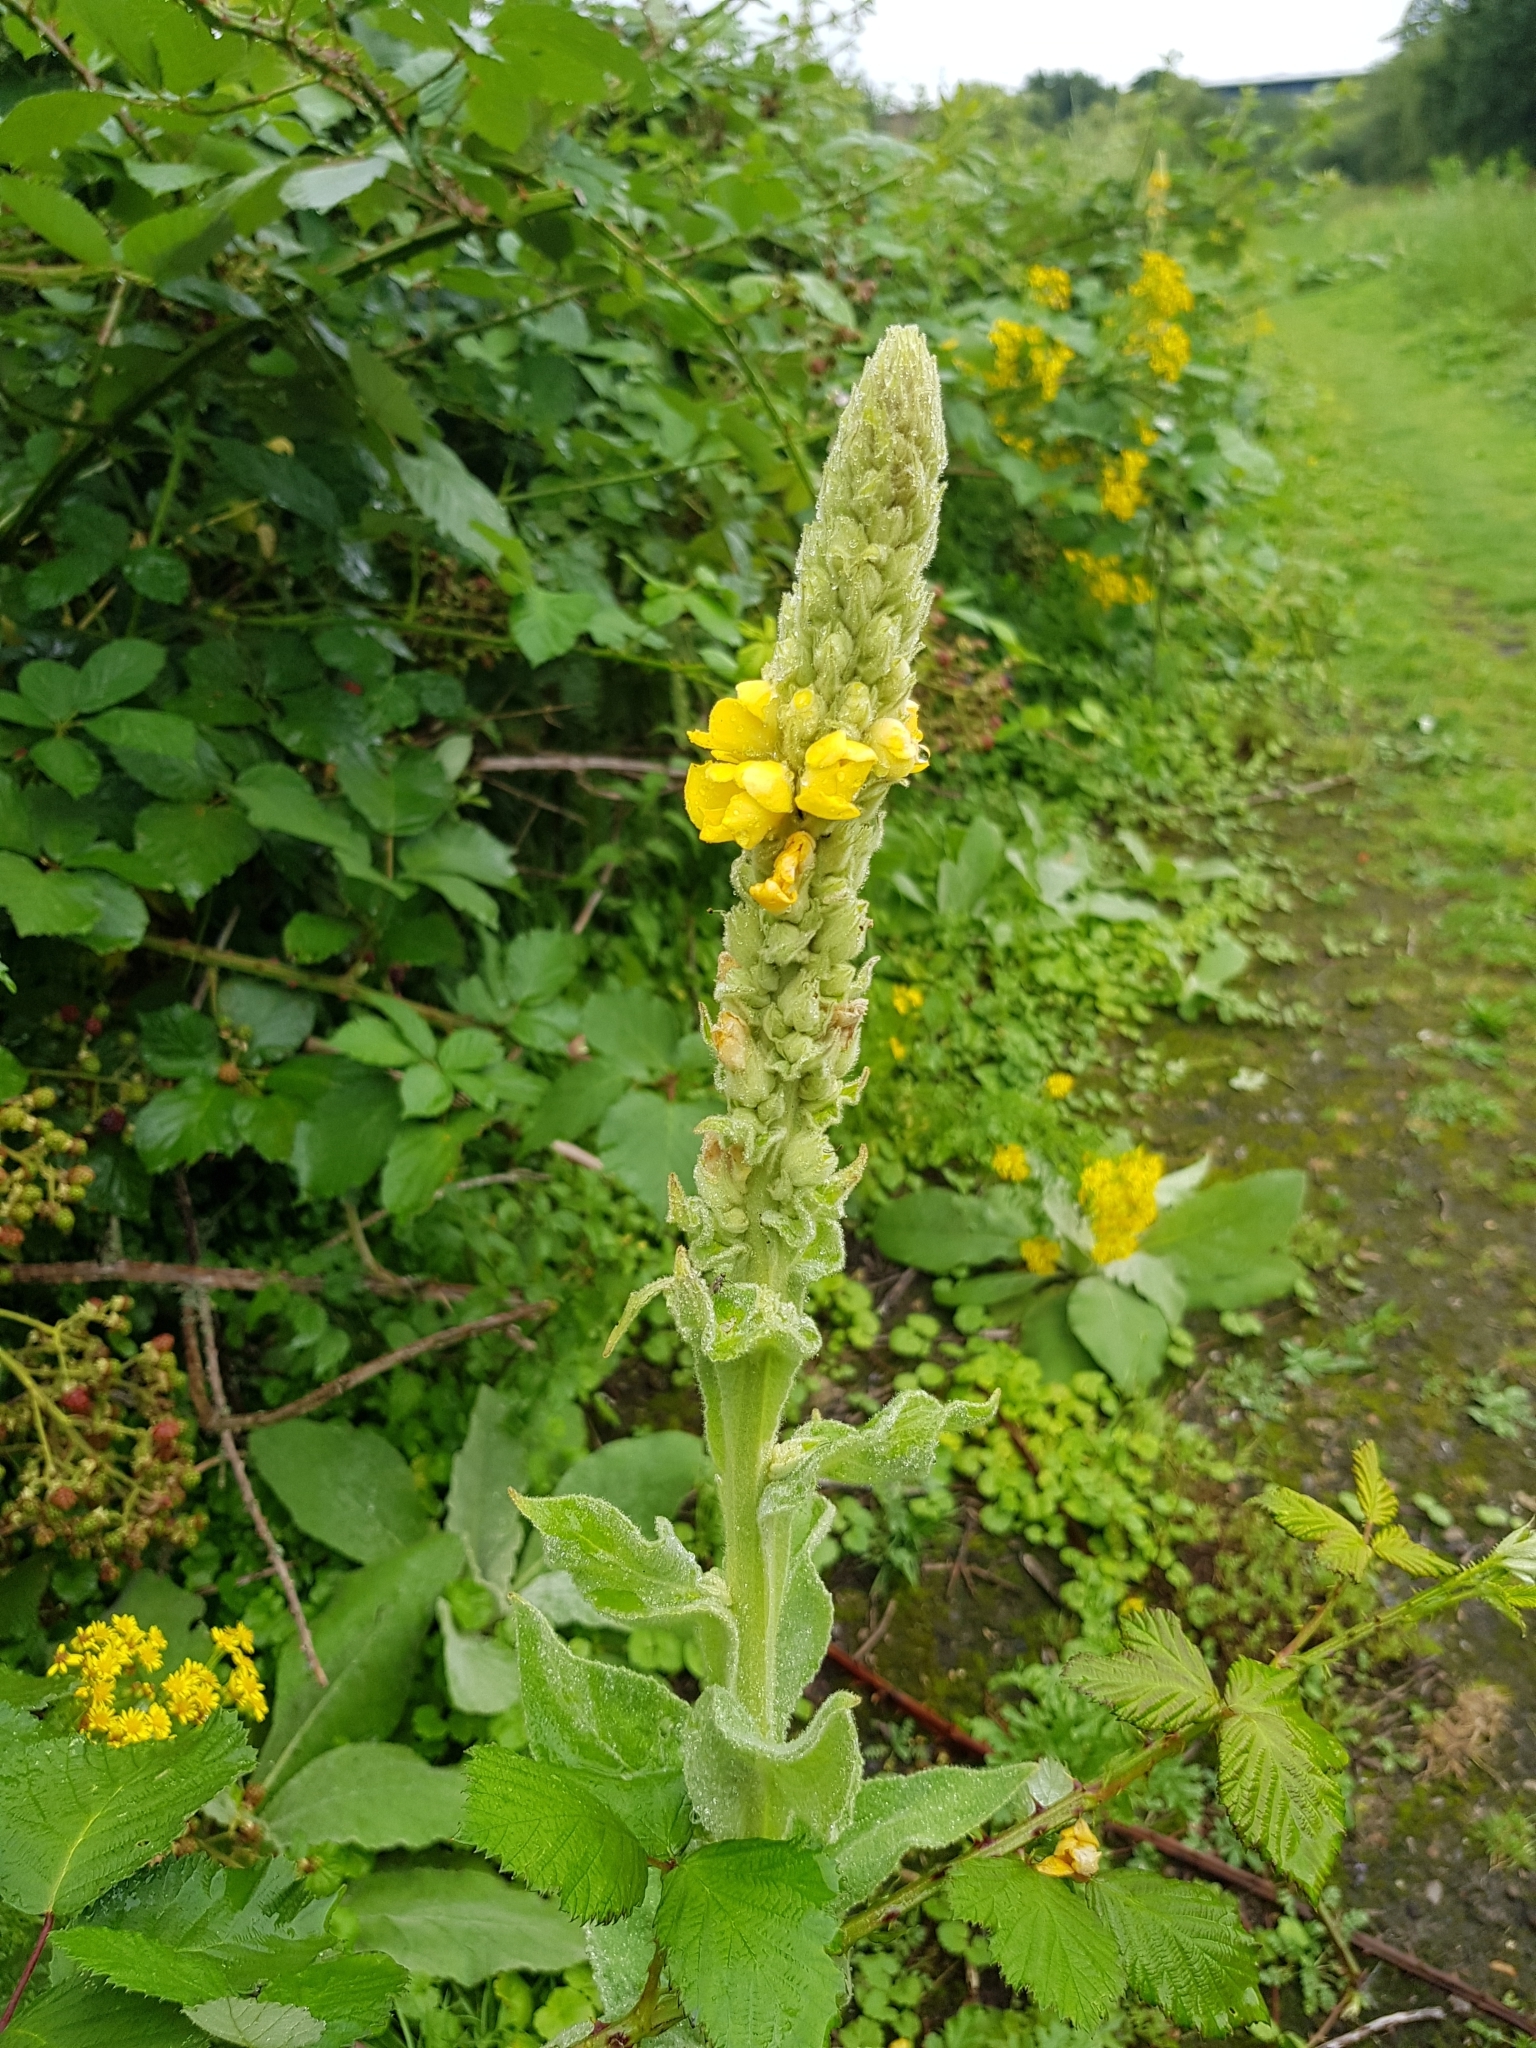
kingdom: Plantae
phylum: Tracheophyta
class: Magnoliopsida
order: Lamiales
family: Scrophulariaceae
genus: Verbascum
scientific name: Verbascum thapsus
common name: Common mullein
